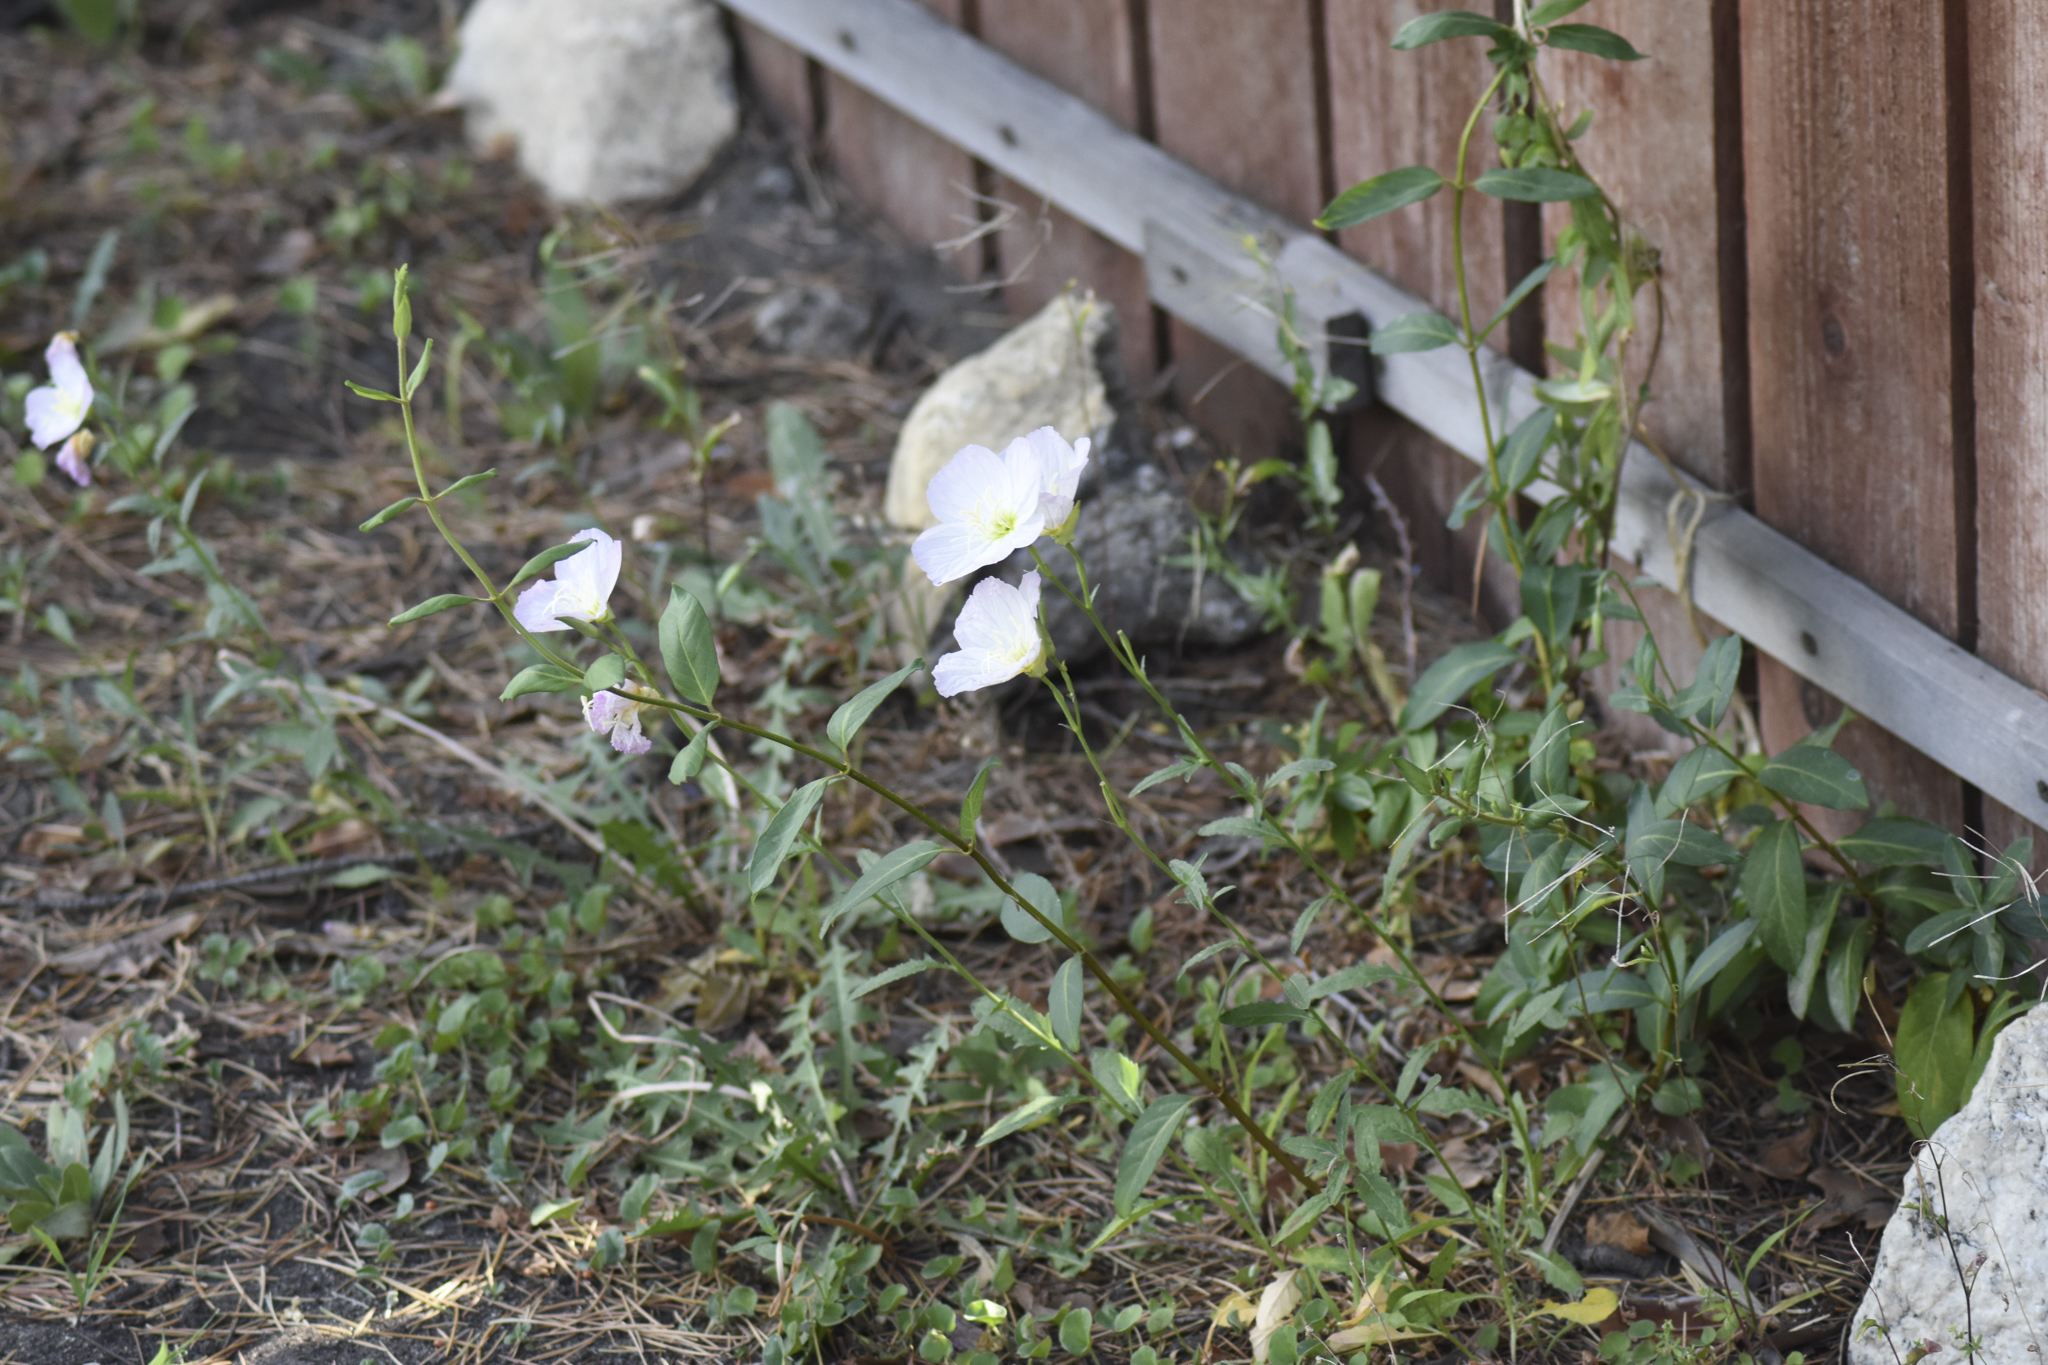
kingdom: Plantae
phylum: Tracheophyta
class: Magnoliopsida
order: Myrtales
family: Onagraceae
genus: Oenothera
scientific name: Oenothera speciosa
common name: White evening-primrose
